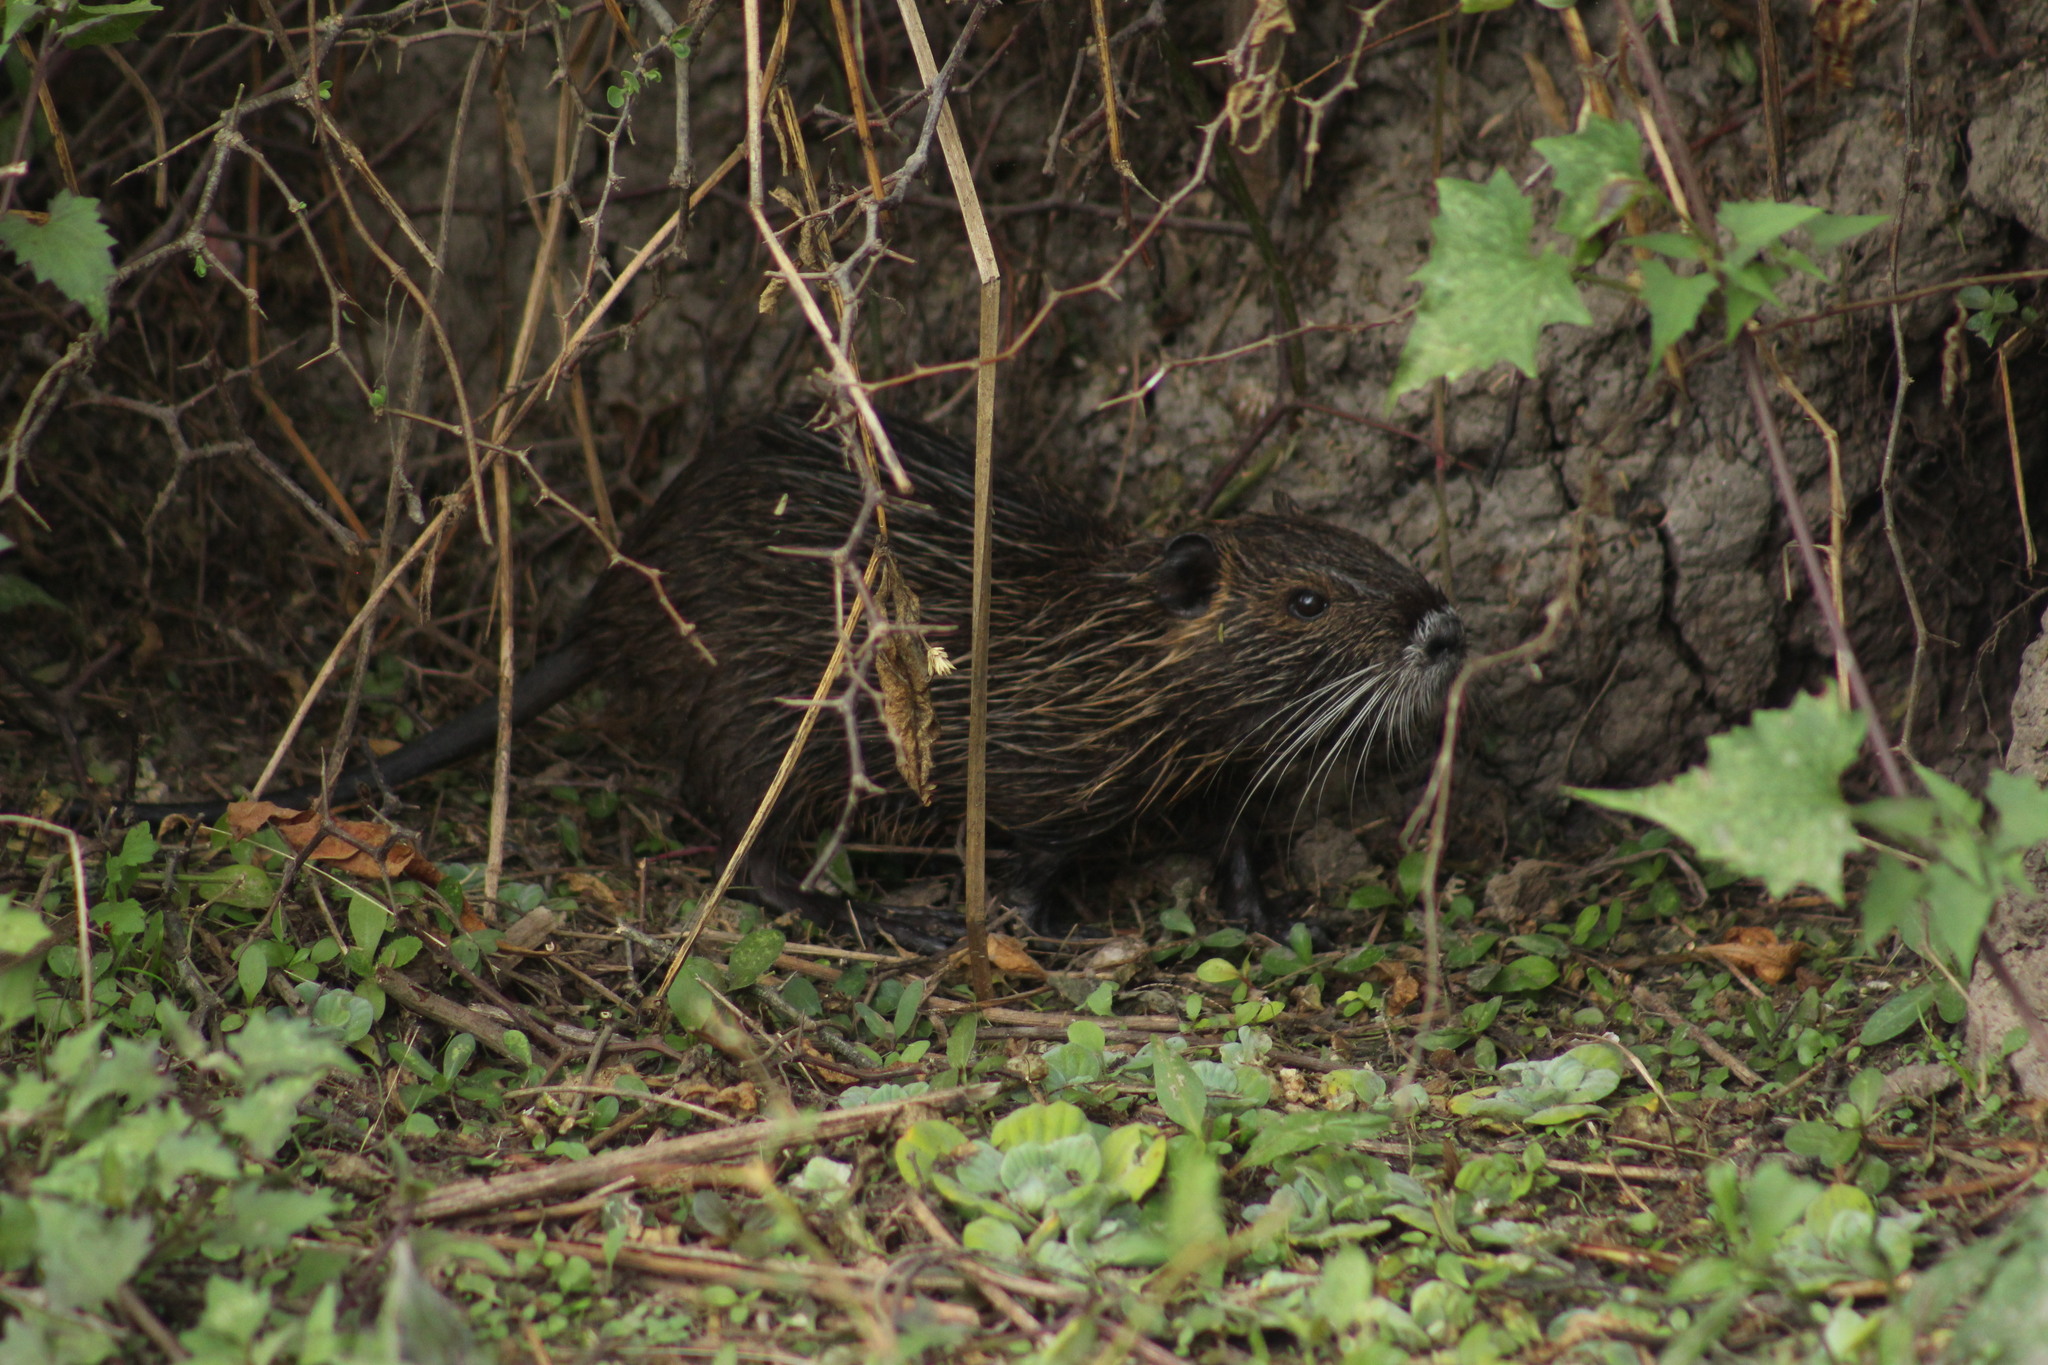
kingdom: Animalia
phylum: Chordata
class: Mammalia
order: Rodentia
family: Myocastoridae
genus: Myocastor
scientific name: Myocastor coypus
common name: Coypu
